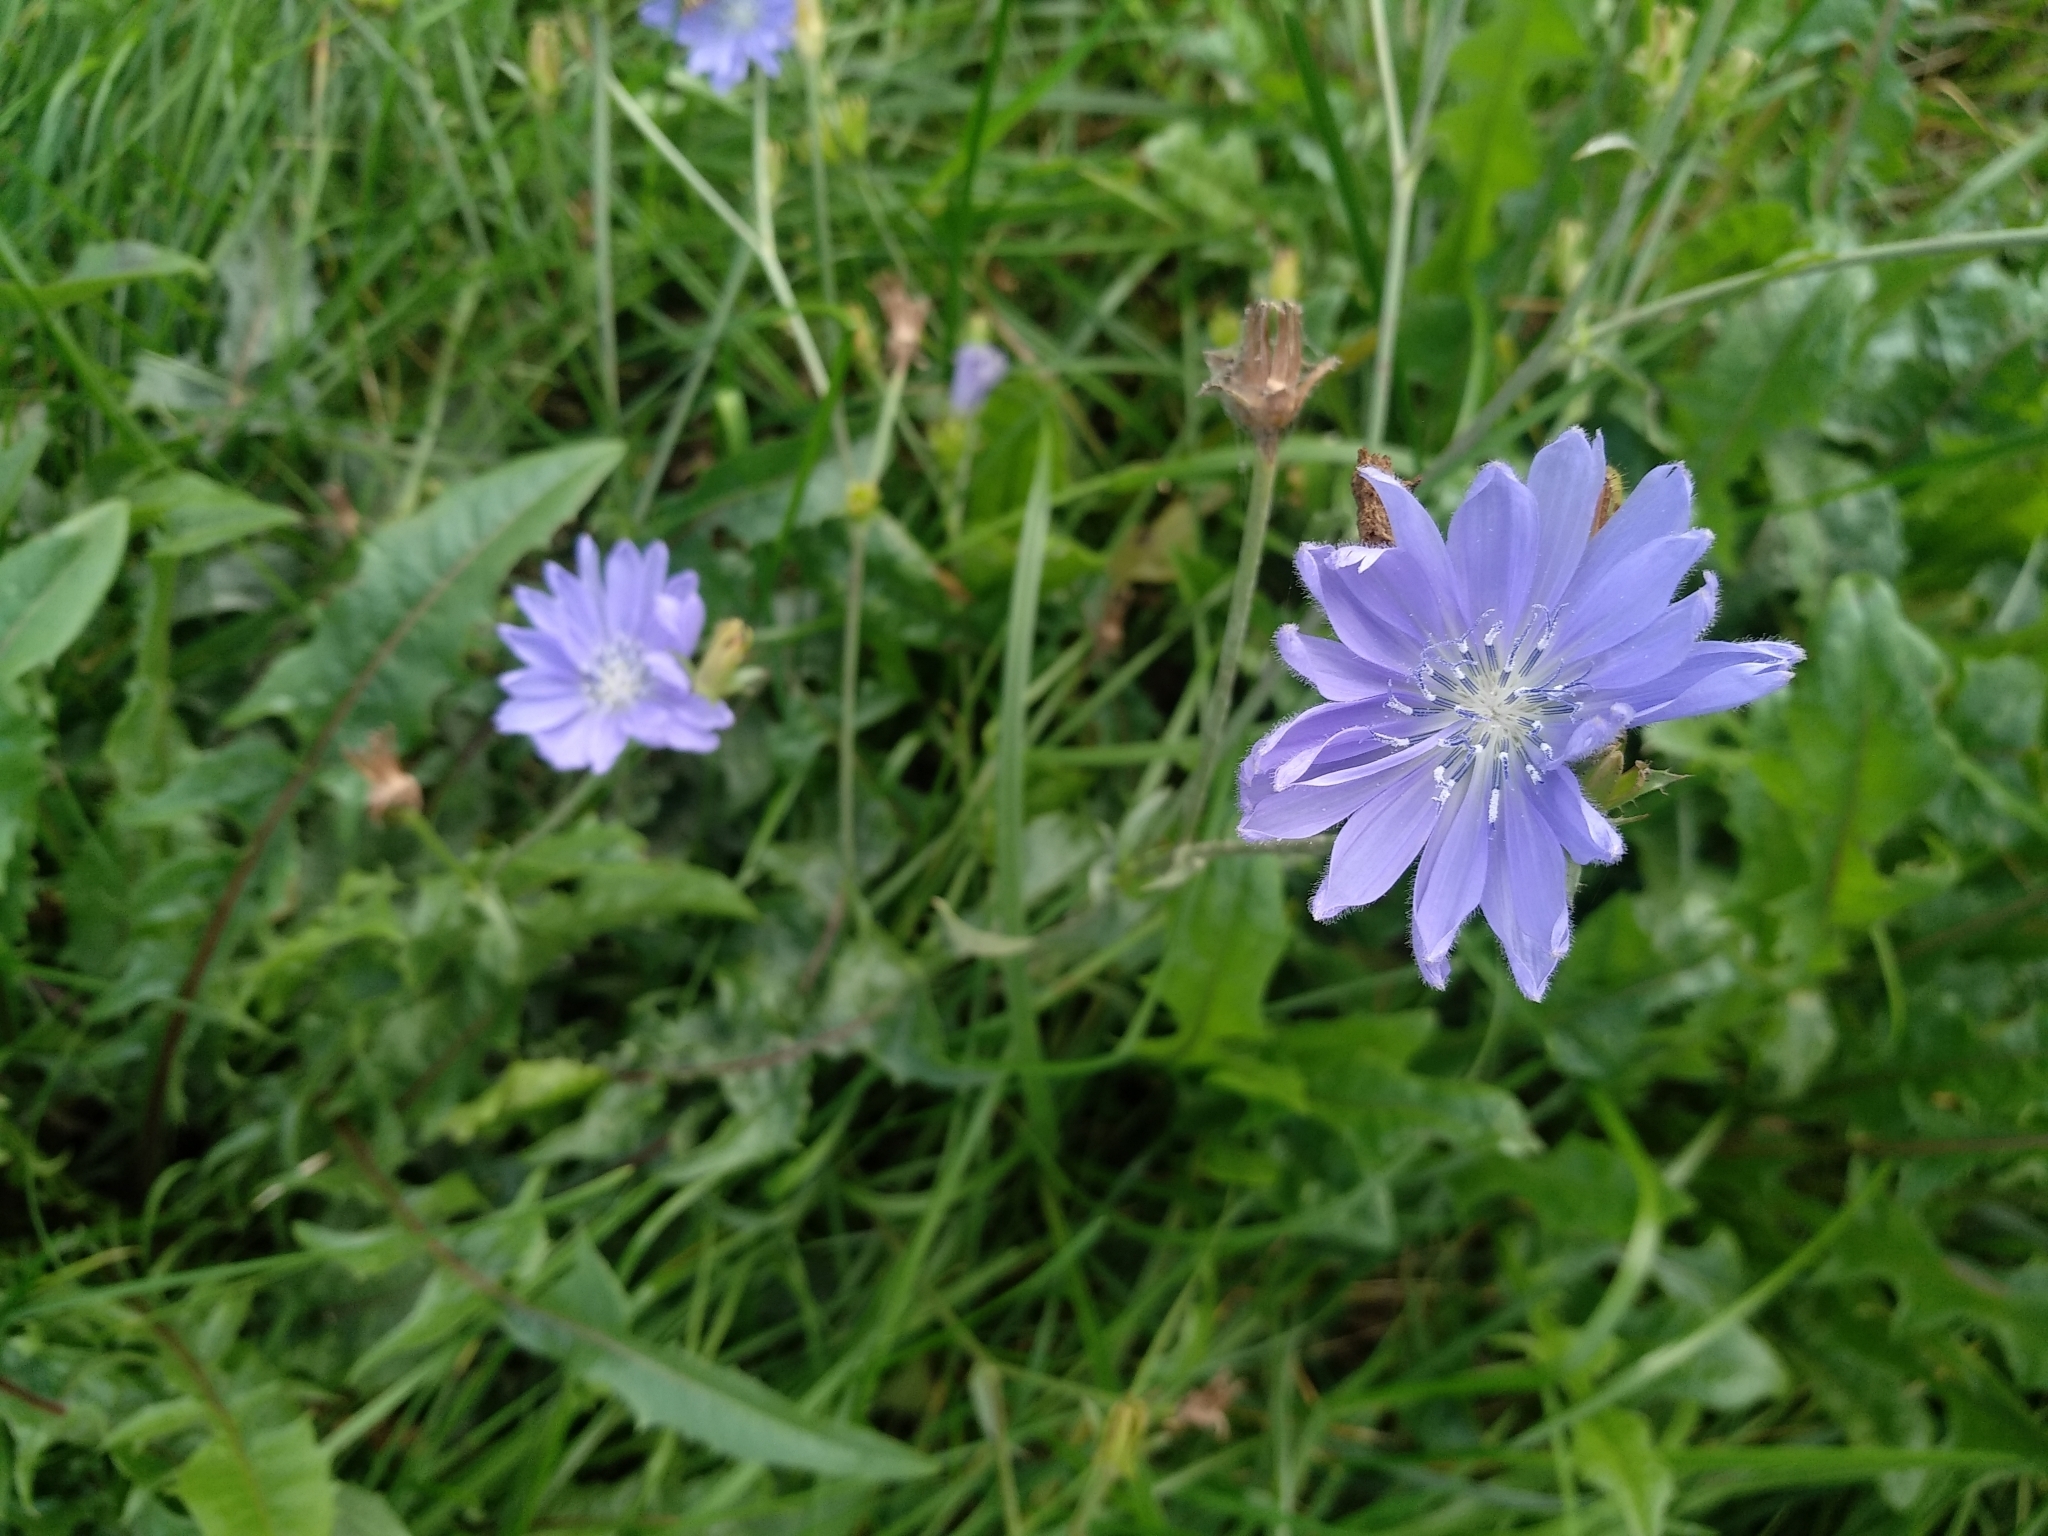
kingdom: Plantae
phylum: Tracheophyta
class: Magnoliopsida
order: Asterales
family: Asteraceae
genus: Cichorium
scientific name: Cichorium intybus
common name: Chicory
